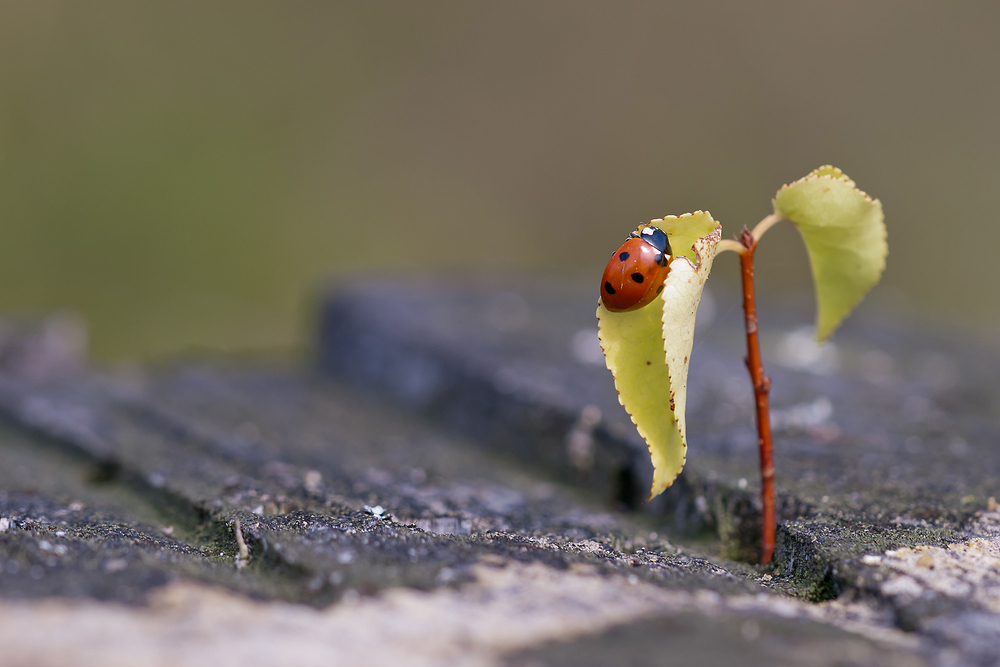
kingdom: Animalia
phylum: Arthropoda
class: Insecta
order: Coleoptera
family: Coccinellidae
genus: Coccinella
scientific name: Coccinella septempunctata
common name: Sevenspotted lady beetle
